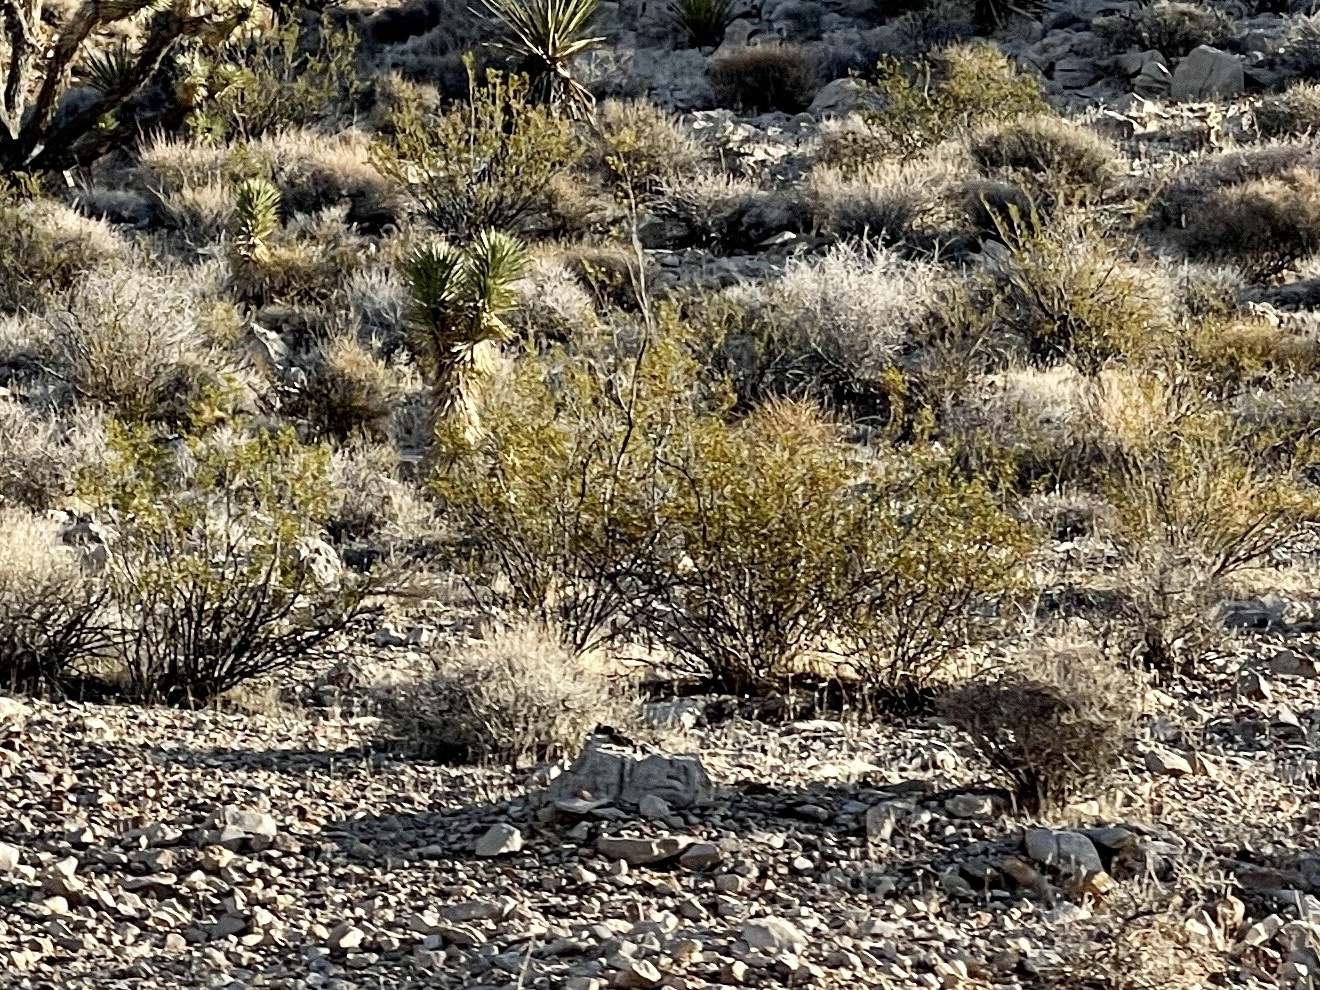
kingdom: Plantae
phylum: Tracheophyta
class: Magnoliopsida
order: Zygophyllales
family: Zygophyllaceae
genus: Larrea
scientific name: Larrea tridentata
